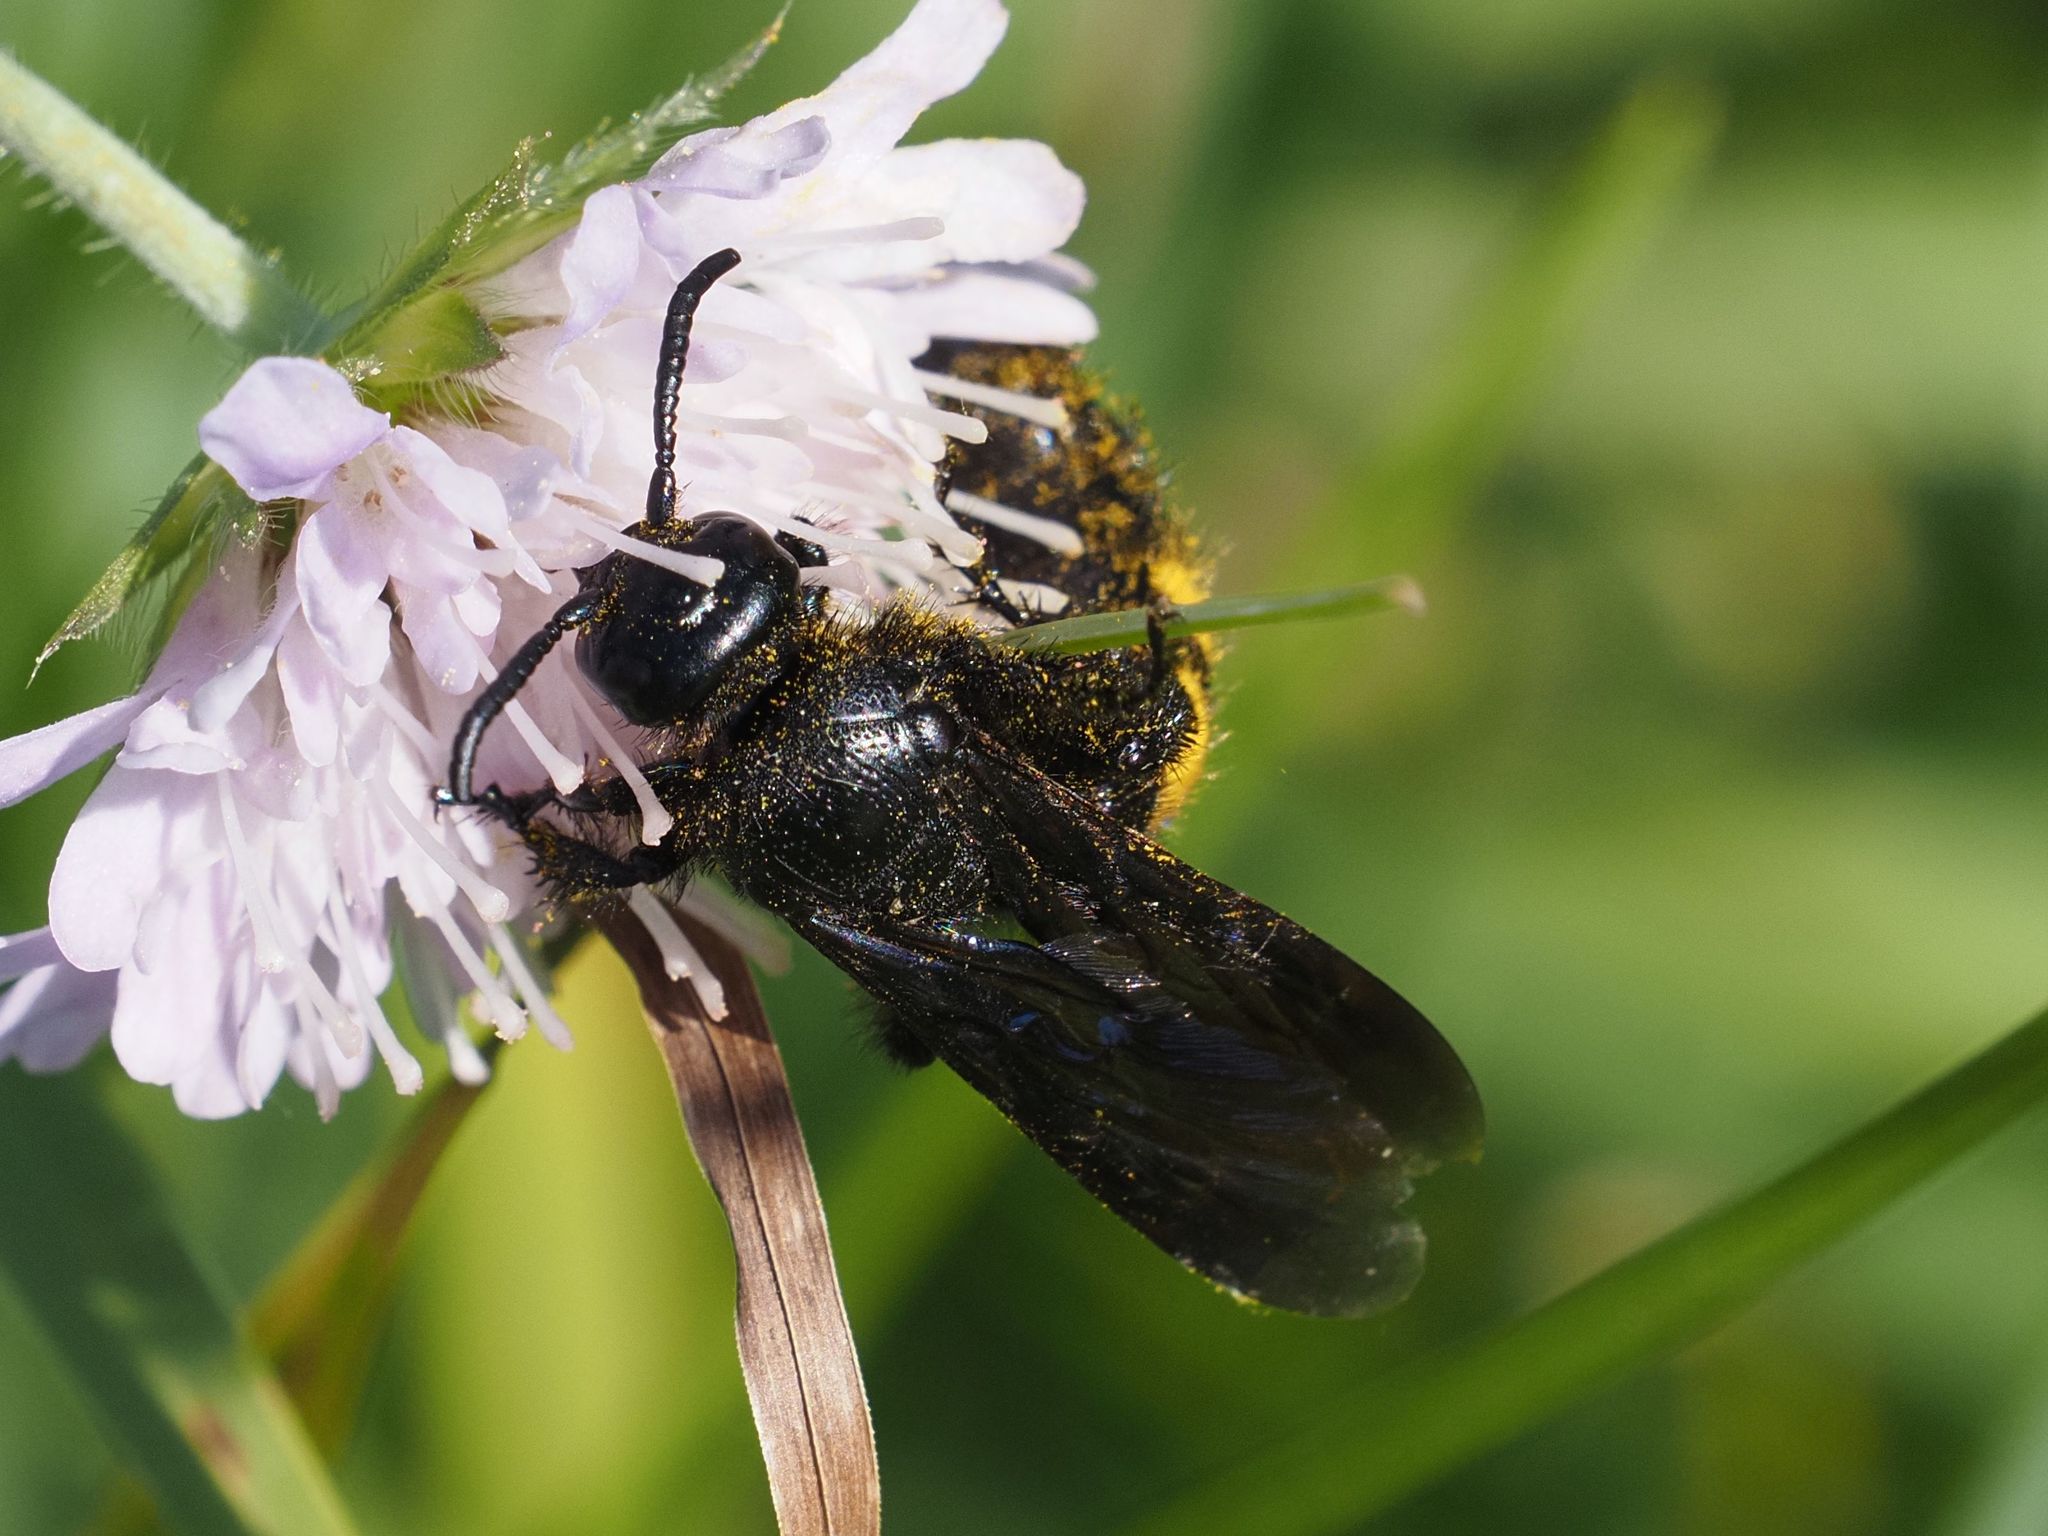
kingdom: Animalia
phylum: Arthropoda
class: Insecta
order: Hymenoptera
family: Scoliidae
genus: Scolia
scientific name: Scolia hirta
